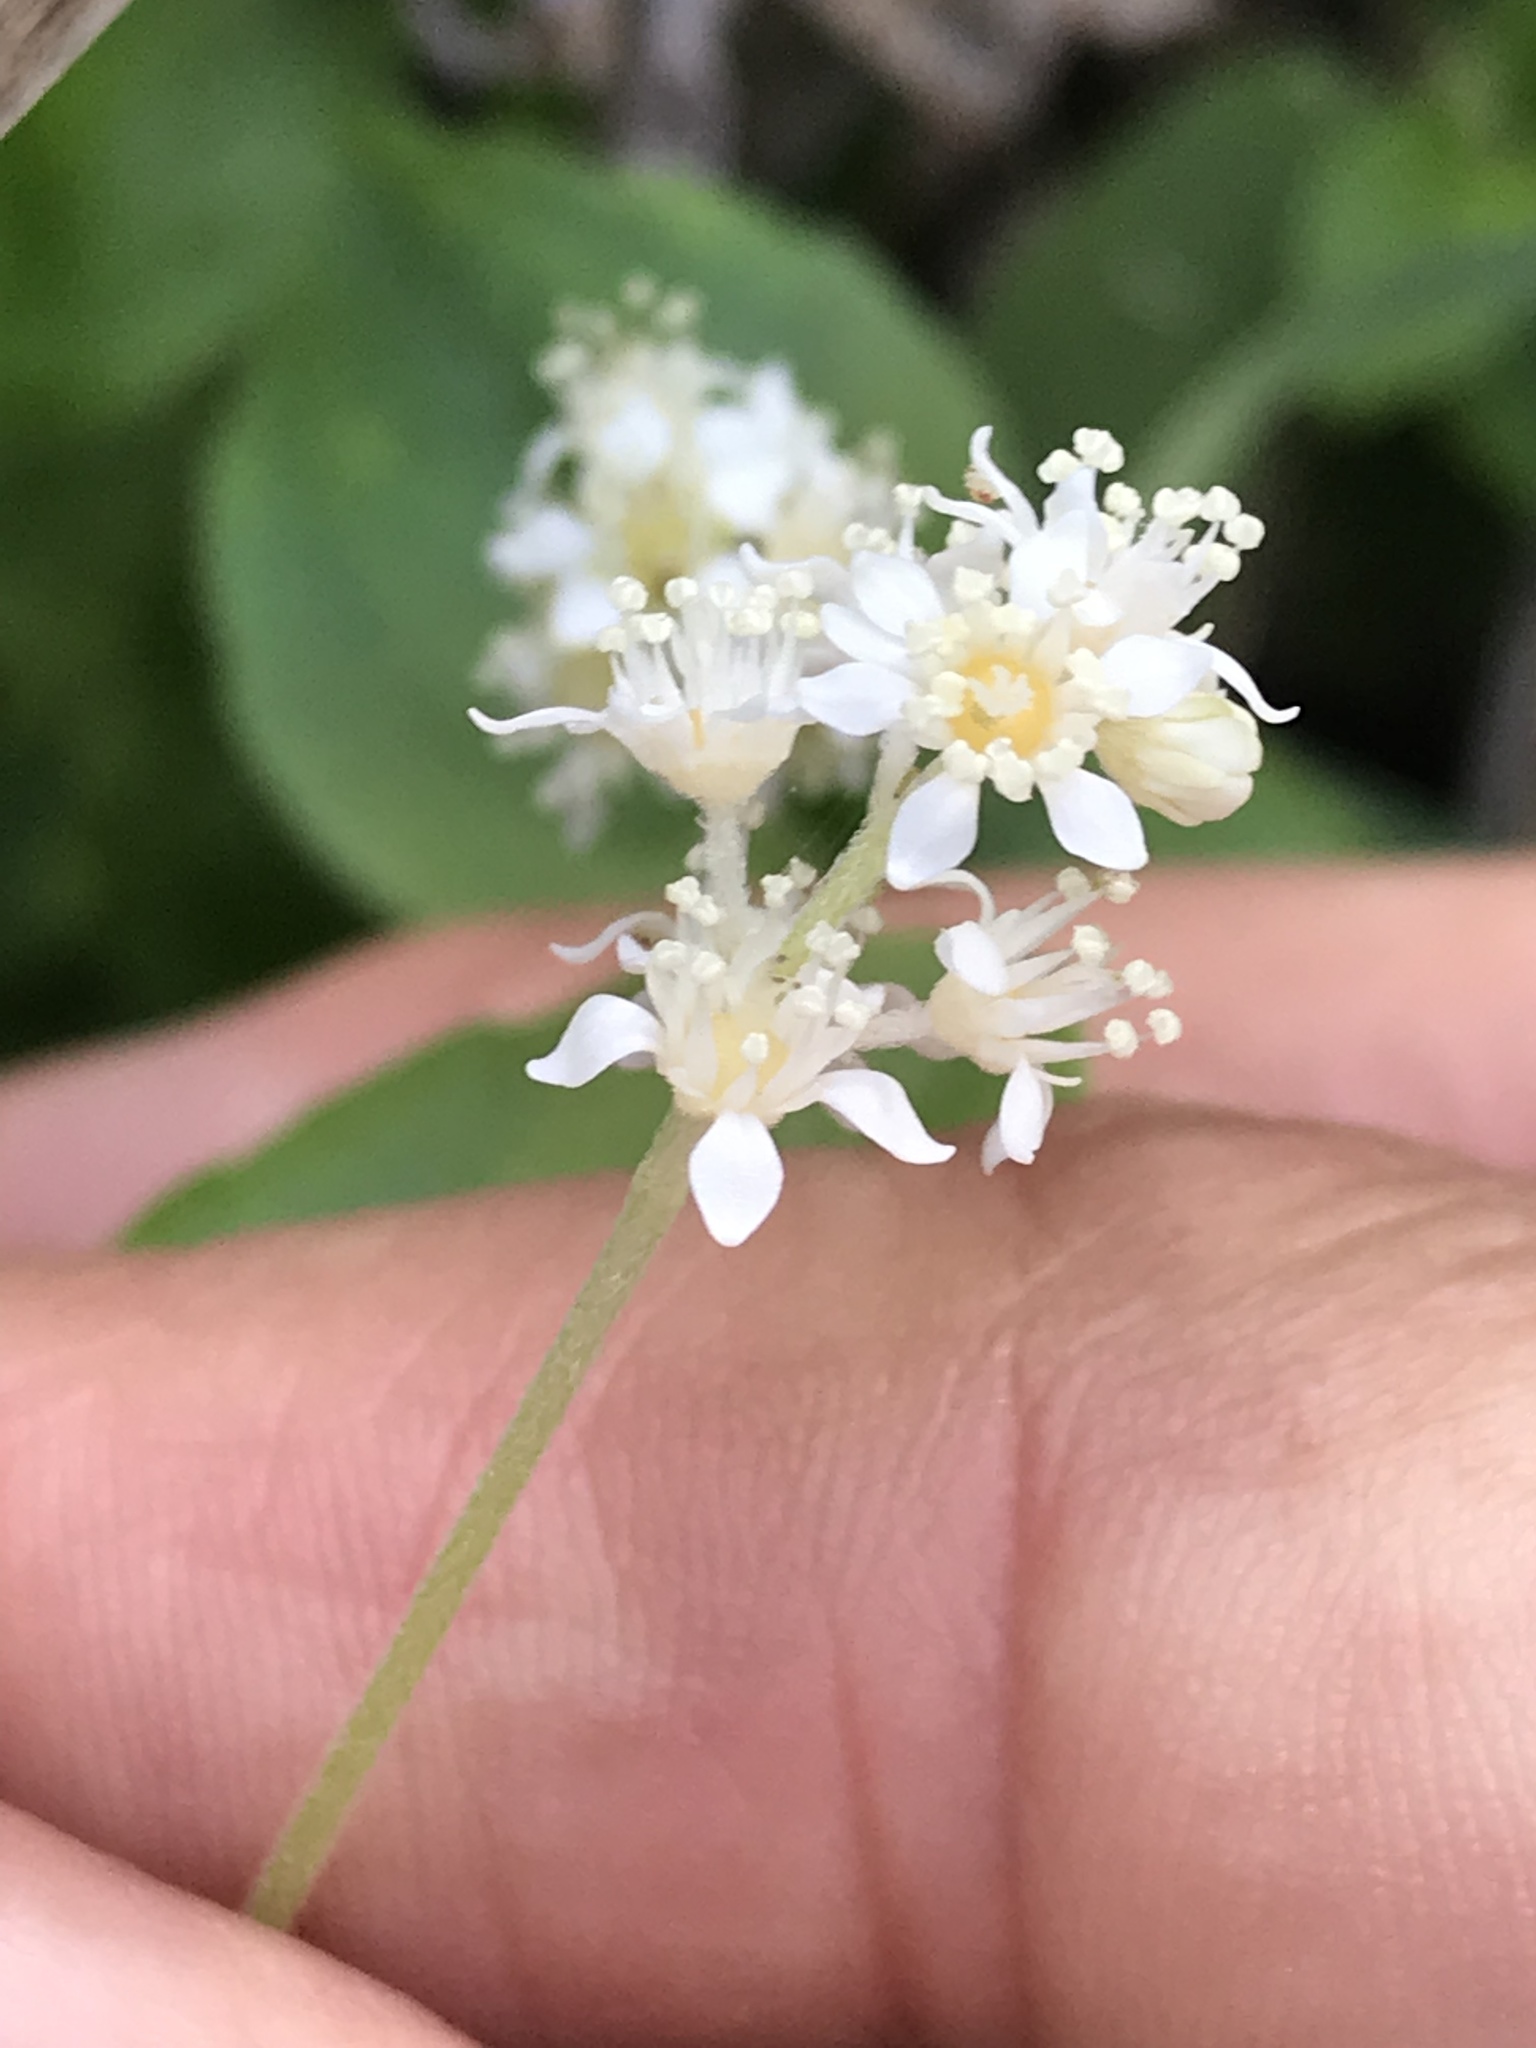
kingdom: Plantae
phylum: Tracheophyta
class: Magnoliopsida
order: Cornales
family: Hydrangeaceae
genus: Whipplea
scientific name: Whipplea modesta
